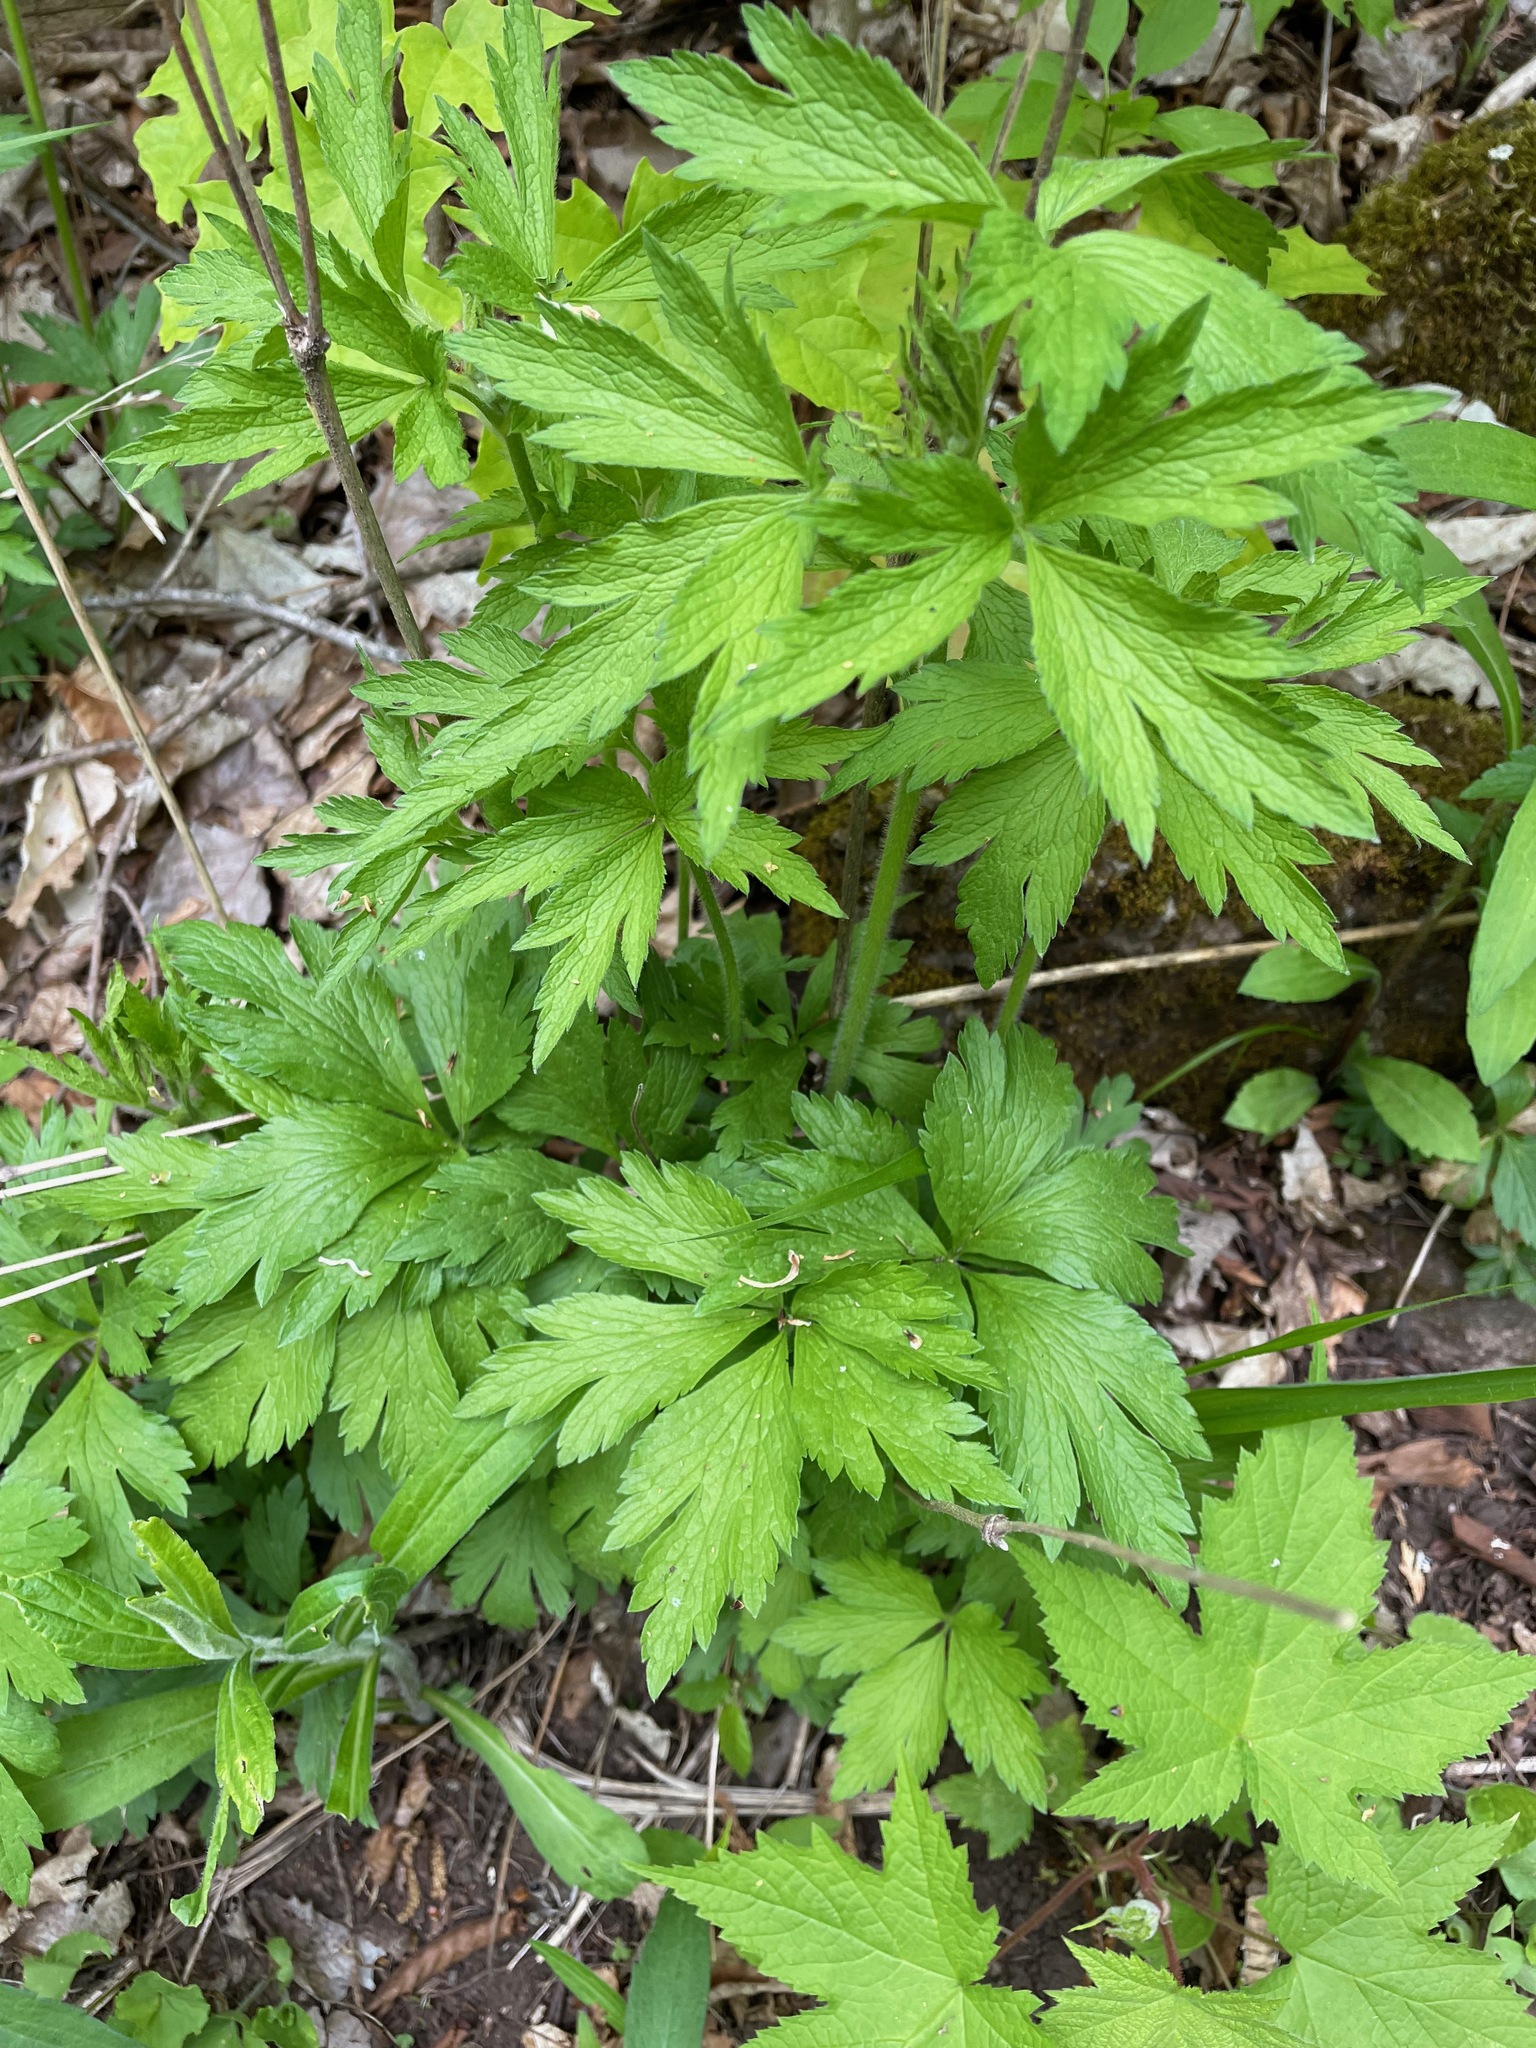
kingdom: Plantae
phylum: Tracheophyta
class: Magnoliopsida
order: Ranunculales
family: Ranunculaceae
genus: Anemone
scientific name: Anemone virginiana
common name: Tall anemone
